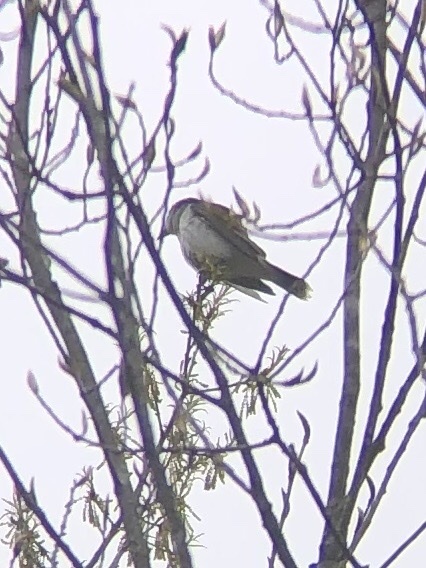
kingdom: Animalia
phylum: Chordata
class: Aves
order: Passeriformes
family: Tyrannidae
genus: Tyrannus
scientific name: Tyrannus tyrannus
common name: Eastern kingbird
